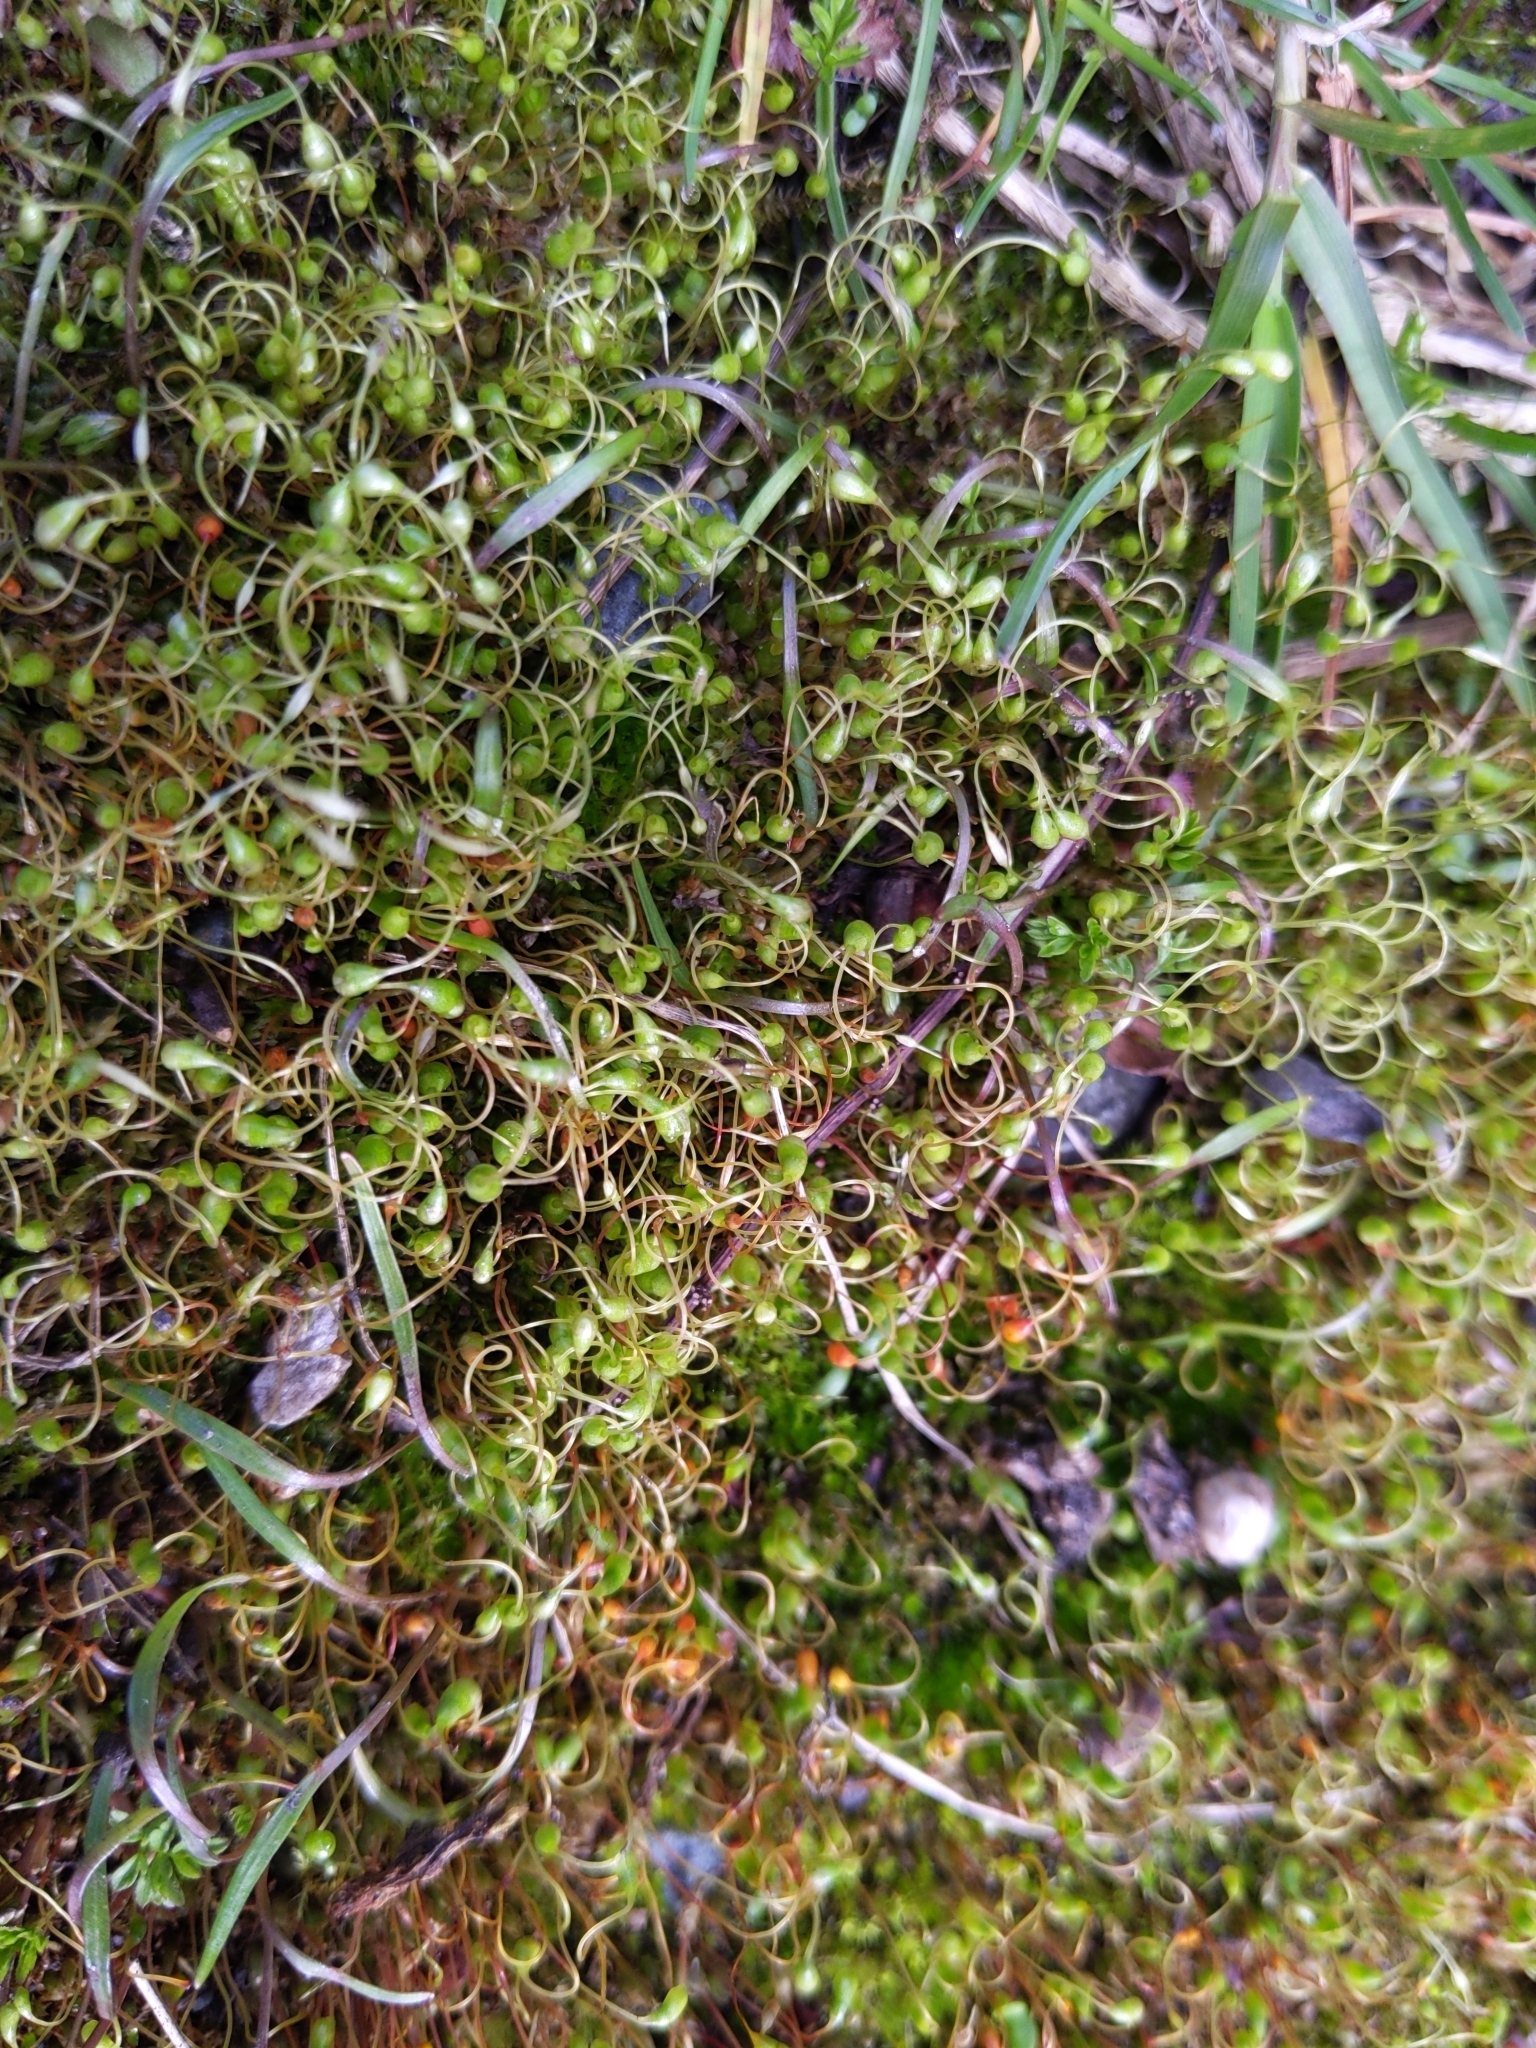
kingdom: Plantae
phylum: Bryophyta
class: Bryopsida
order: Funariales
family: Funariaceae
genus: Funaria
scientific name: Funaria hygrometrica
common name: Common cord moss
